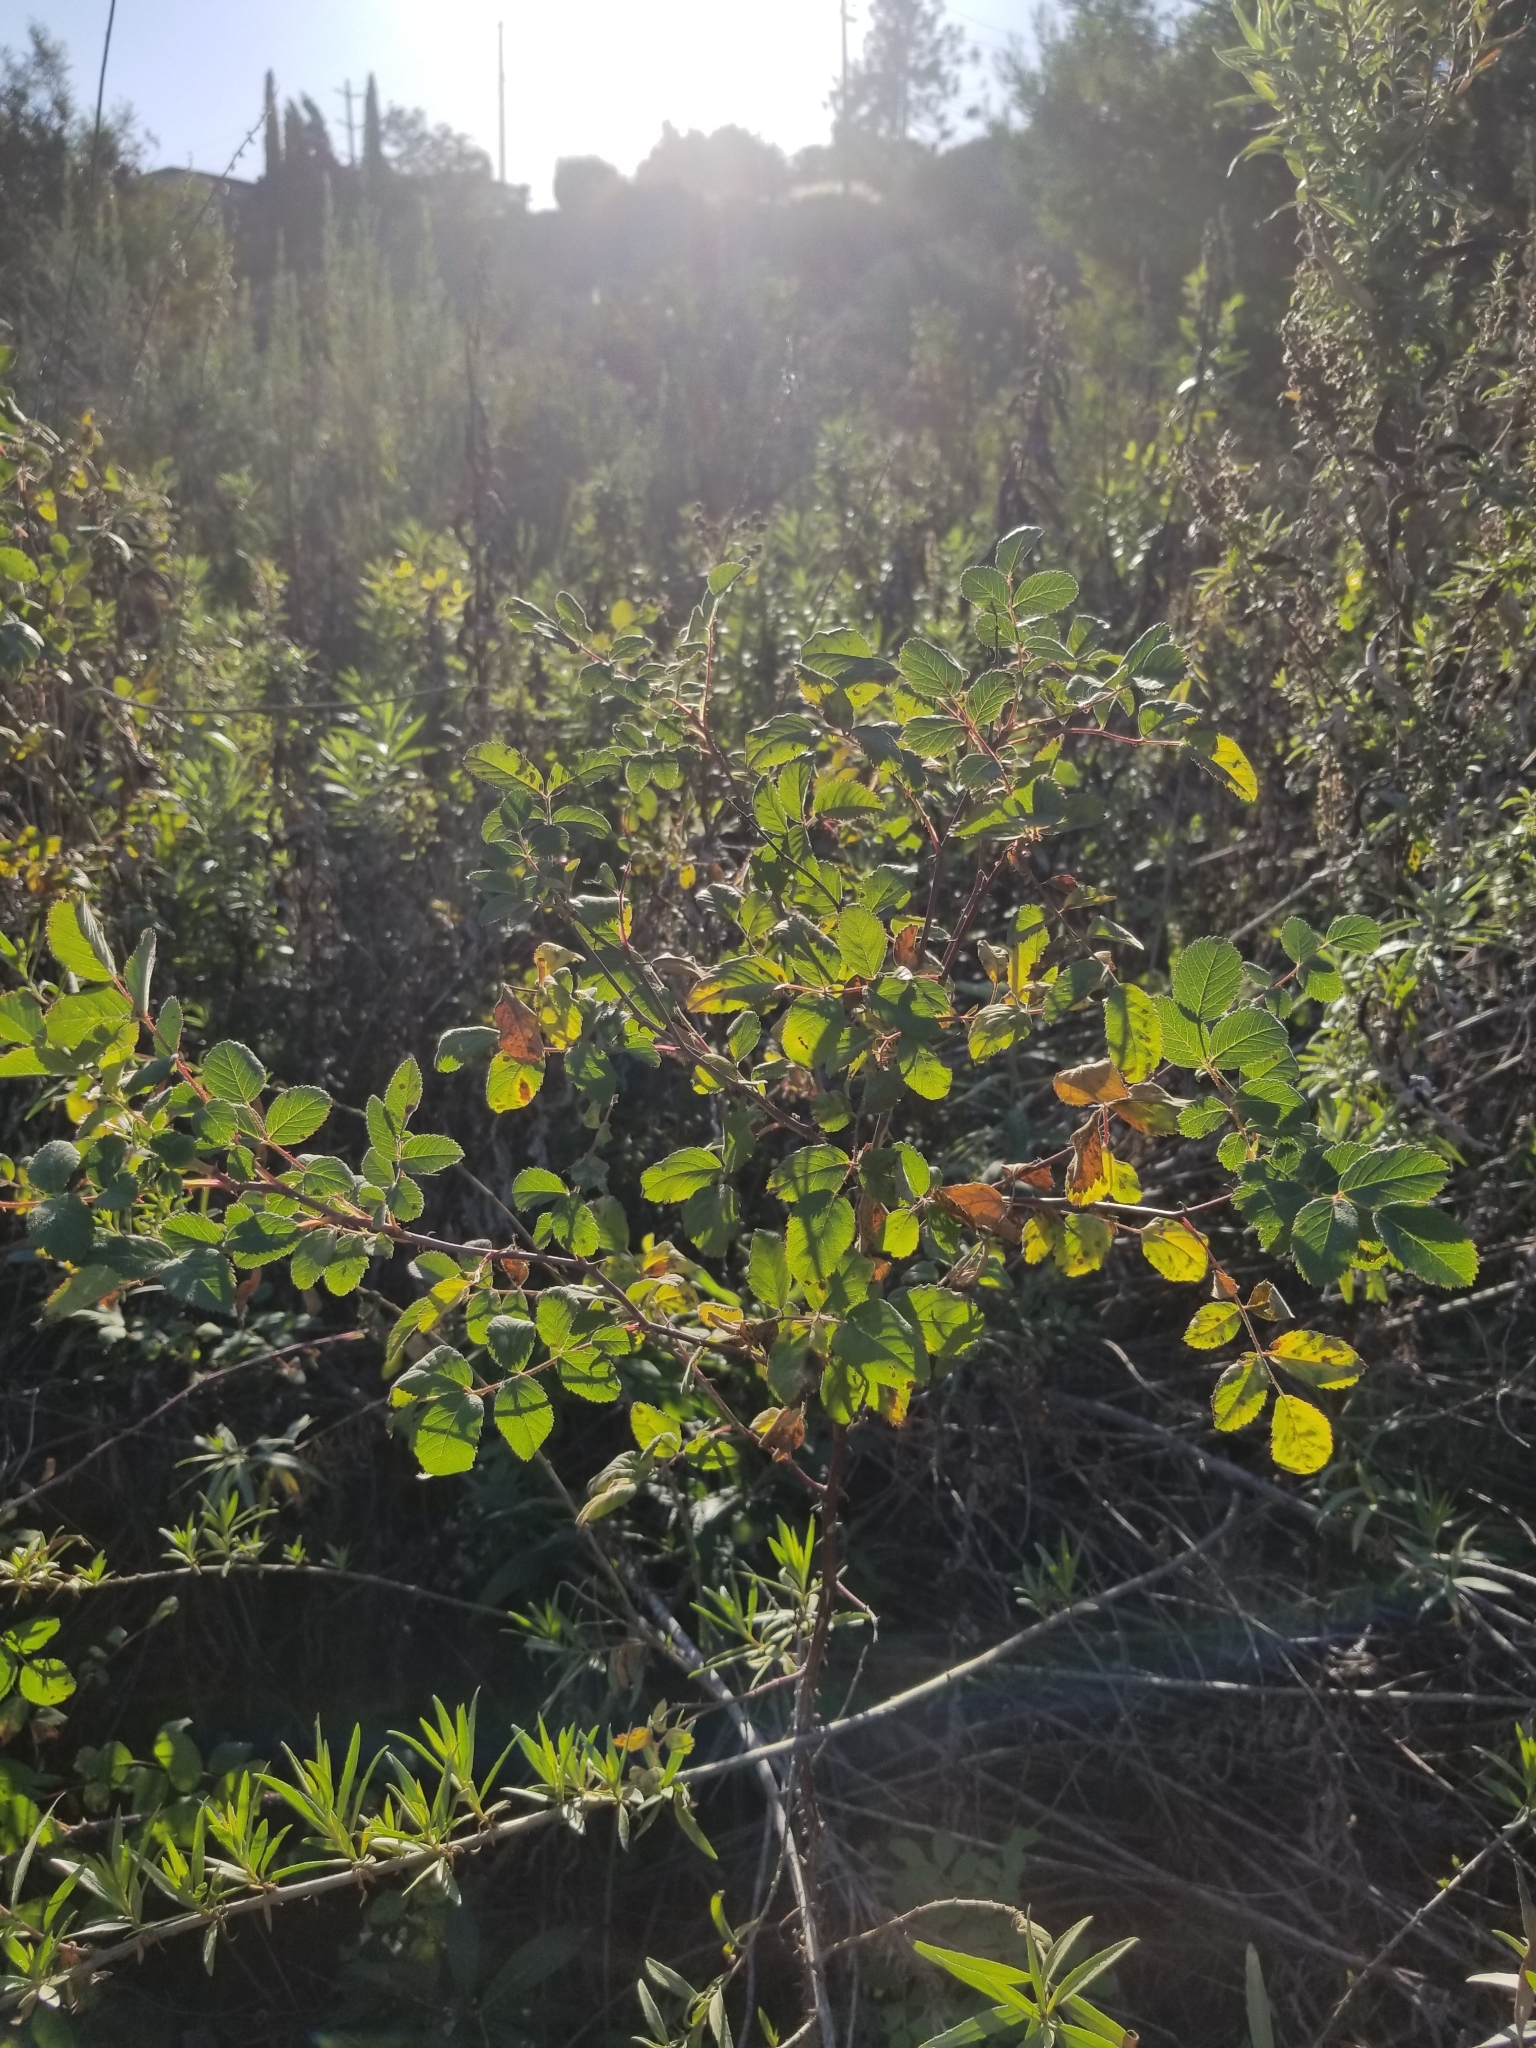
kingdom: Plantae
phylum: Tracheophyta
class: Magnoliopsida
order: Rosales
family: Rosaceae
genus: Rosa
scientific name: Rosa californica
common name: California rose
